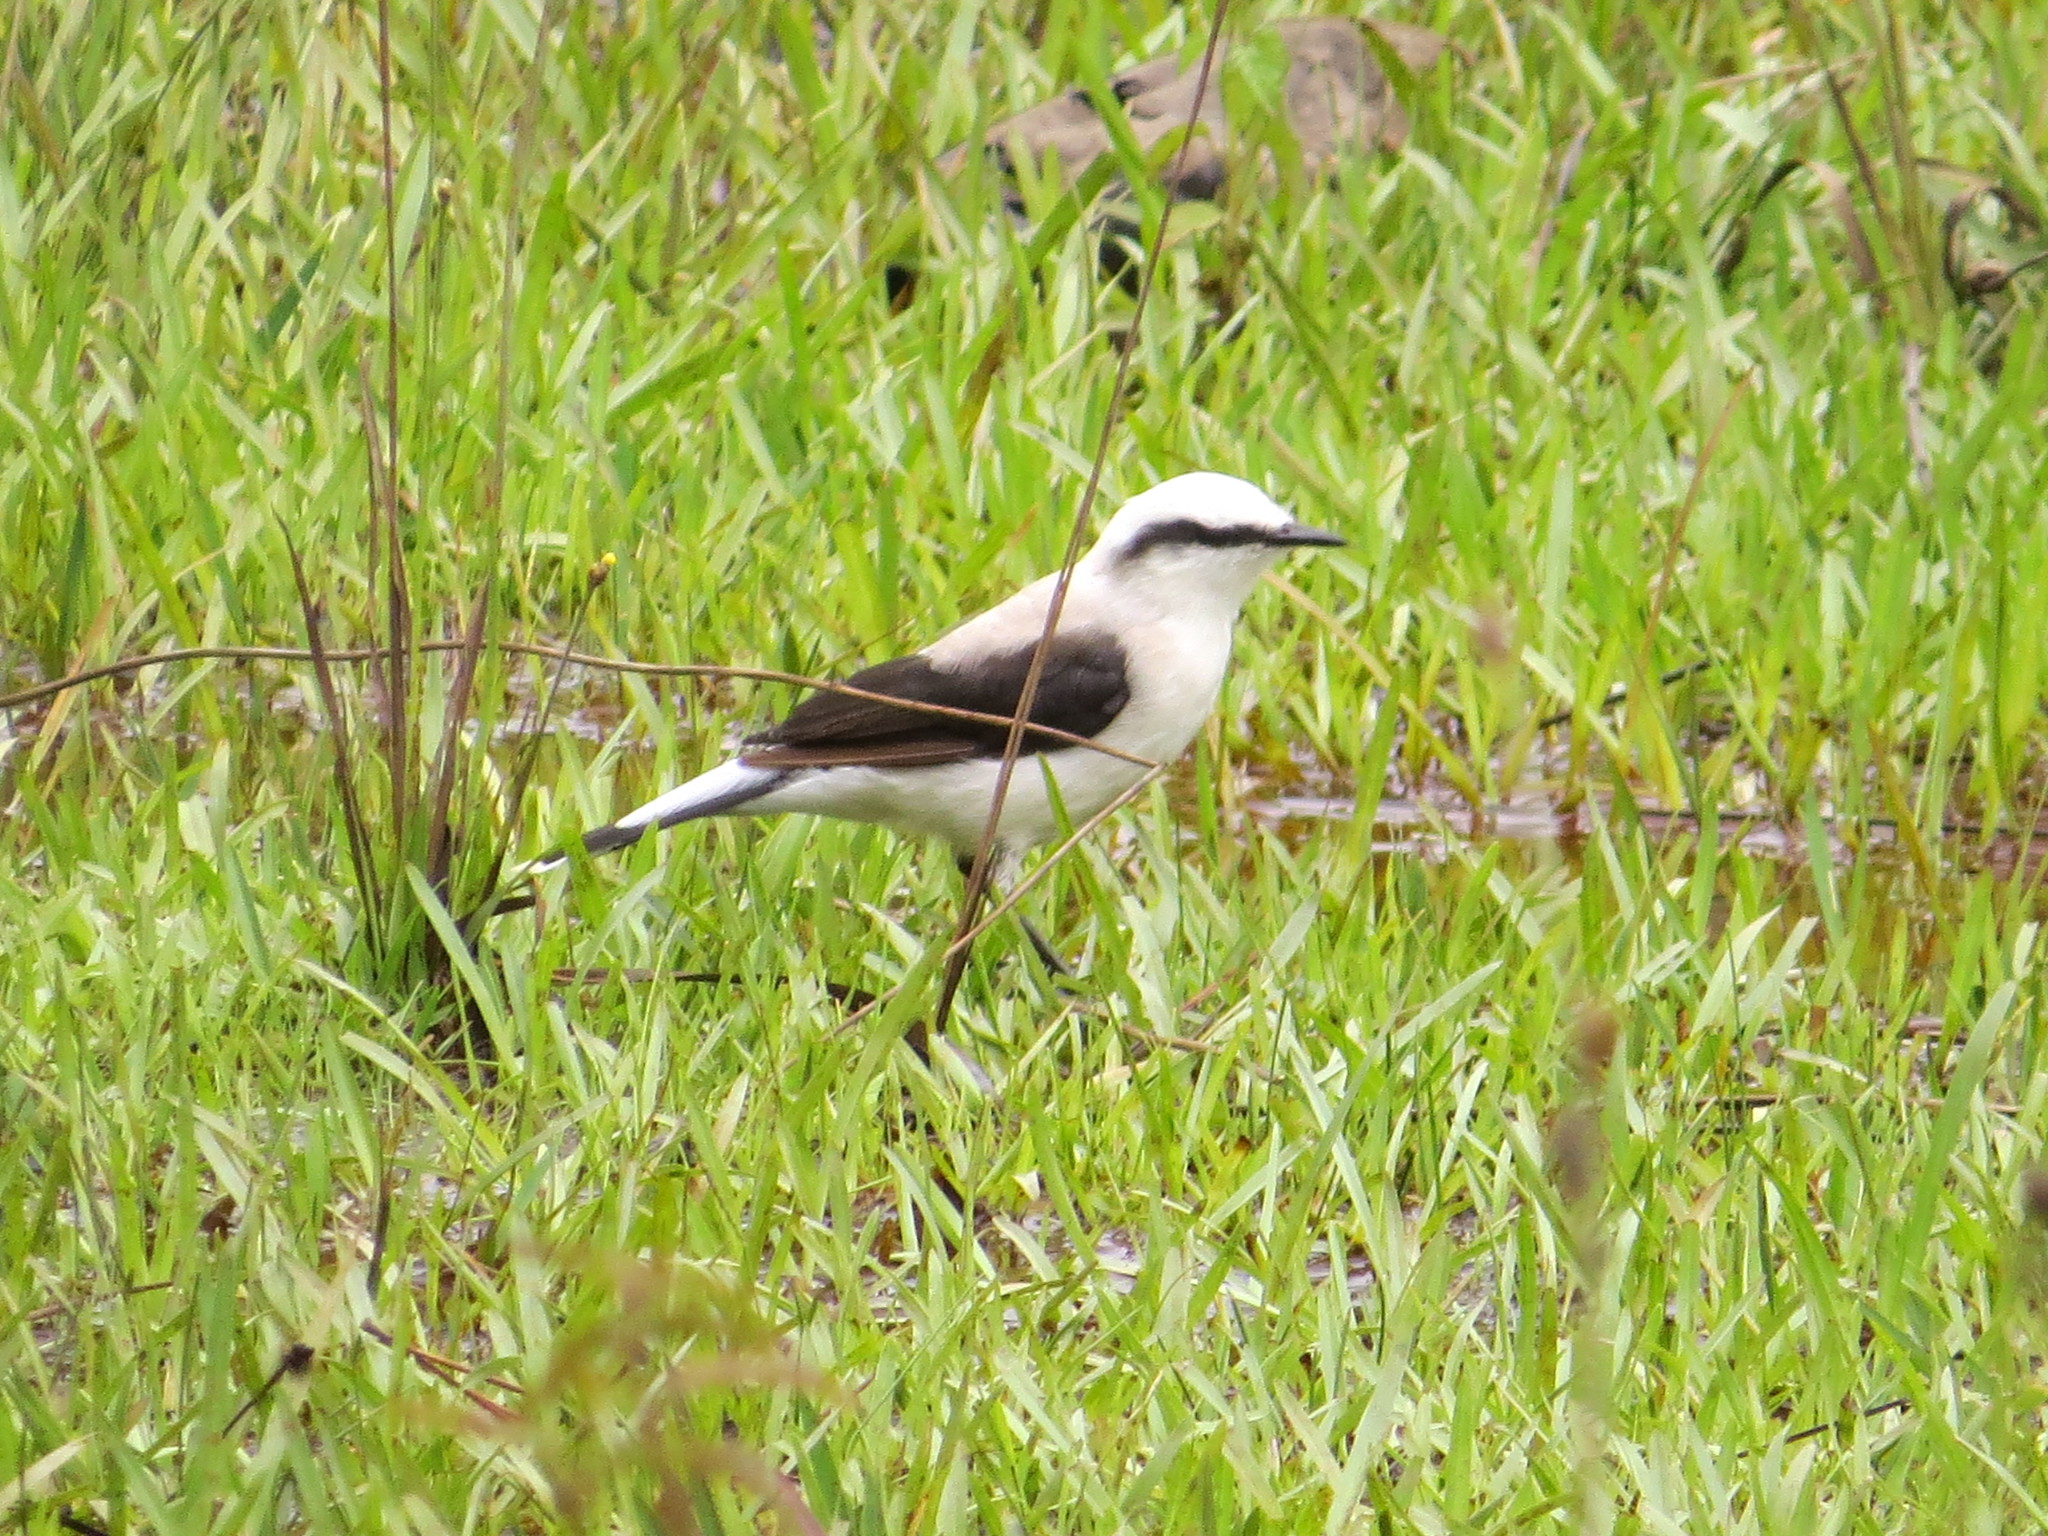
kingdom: Animalia
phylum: Chordata
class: Aves
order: Passeriformes
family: Tyrannidae
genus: Fluvicola
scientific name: Fluvicola nengeta
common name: Masked water tyrant
